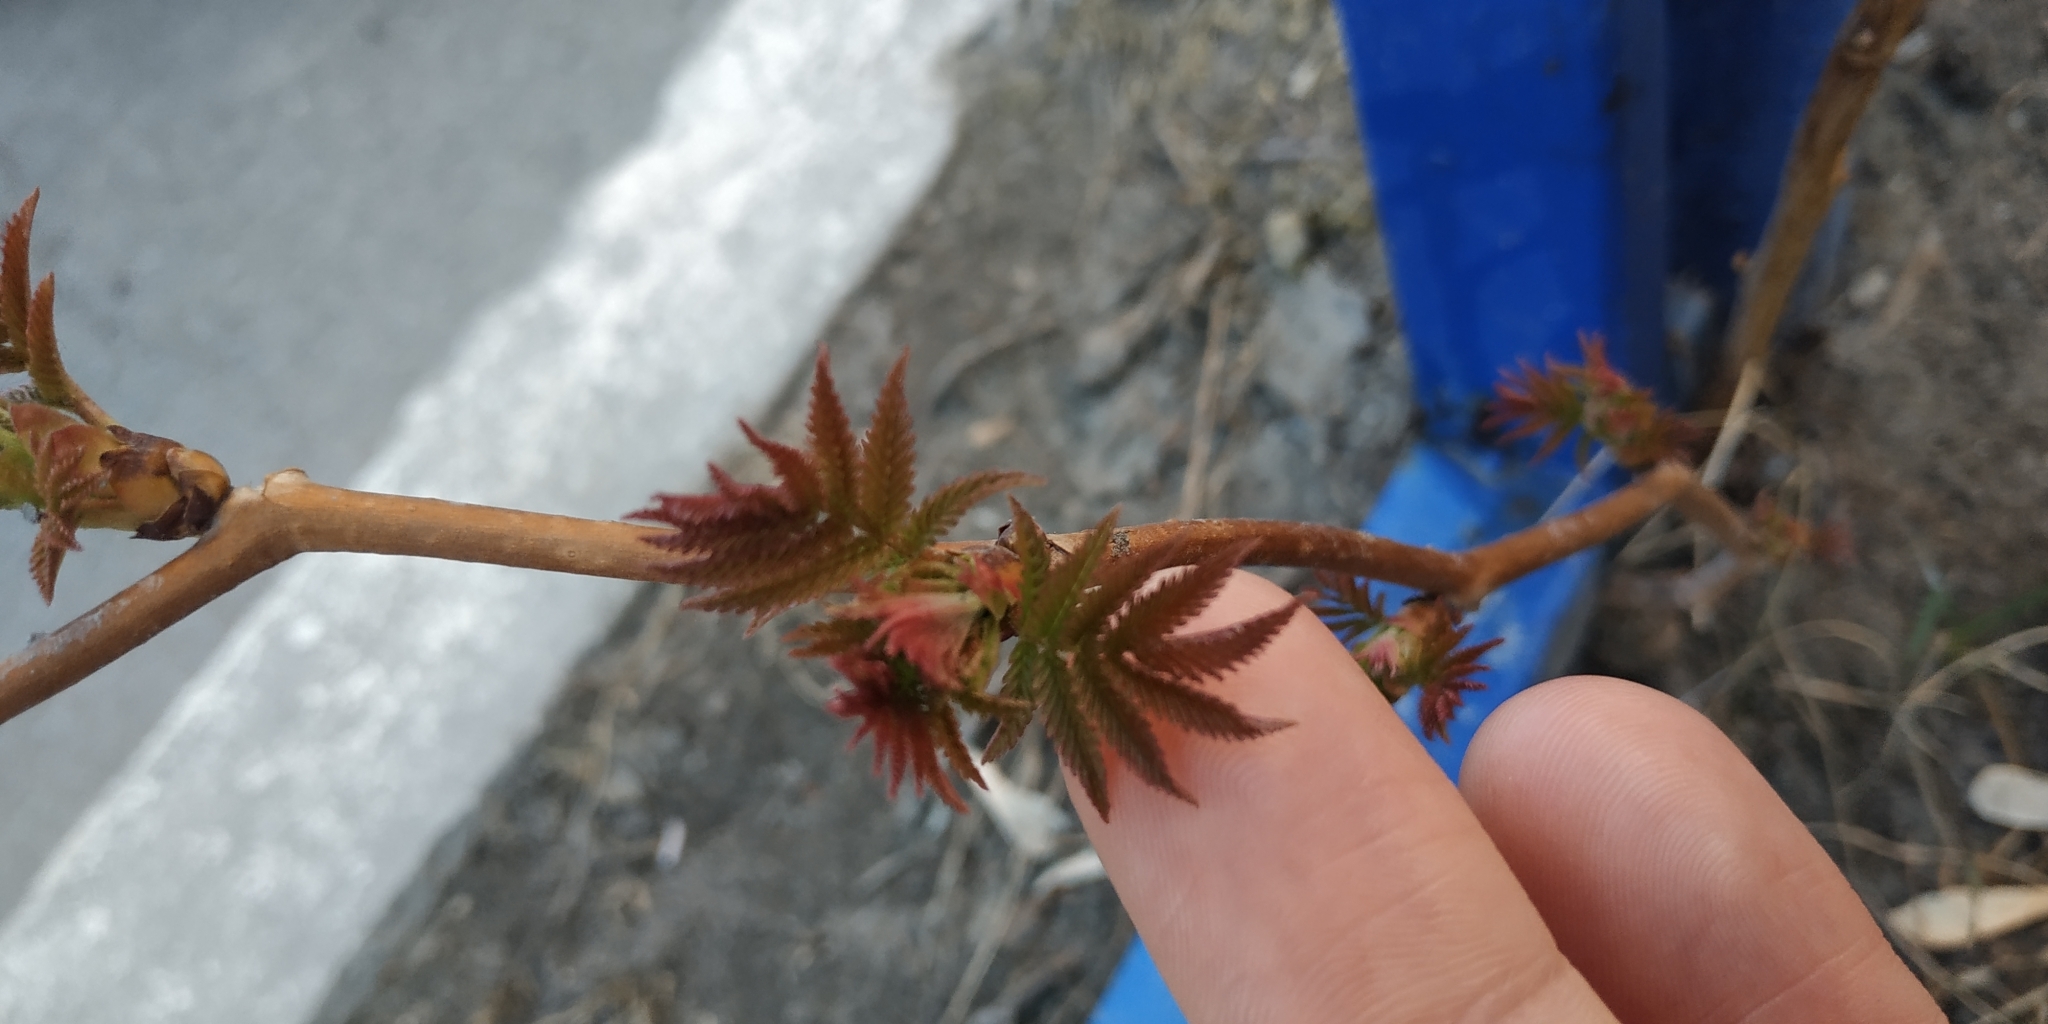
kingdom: Plantae
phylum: Tracheophyta
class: Magnoliopsida
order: Rosales
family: Rosaceae
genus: Sorbaria
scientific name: Sorbaria sorbifolia
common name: False spiraea
